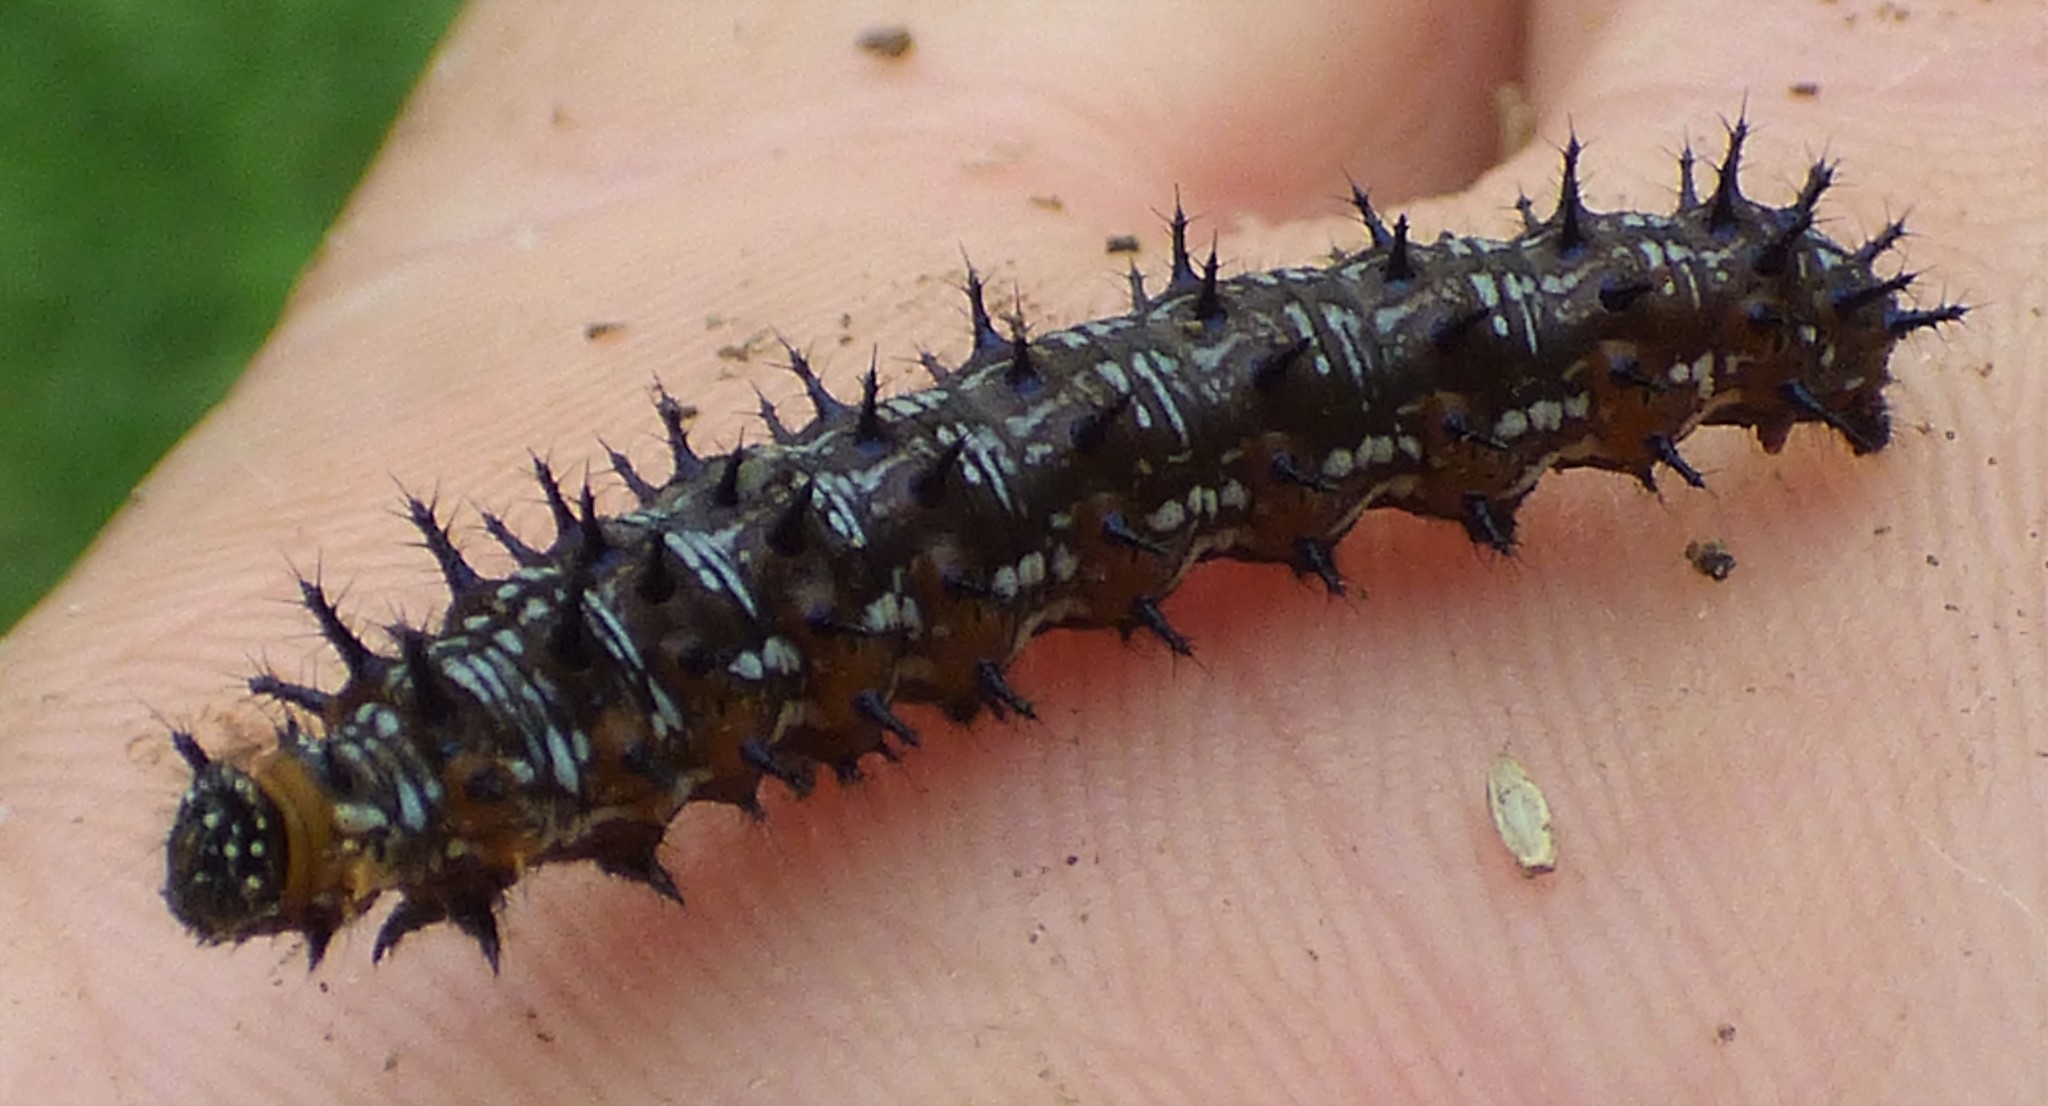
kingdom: Animalia
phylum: Arthropoda
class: Insecta
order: Lepidoptera
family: Nymphalidae
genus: Junonia
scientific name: Junonia coenia
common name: Common buckeye
